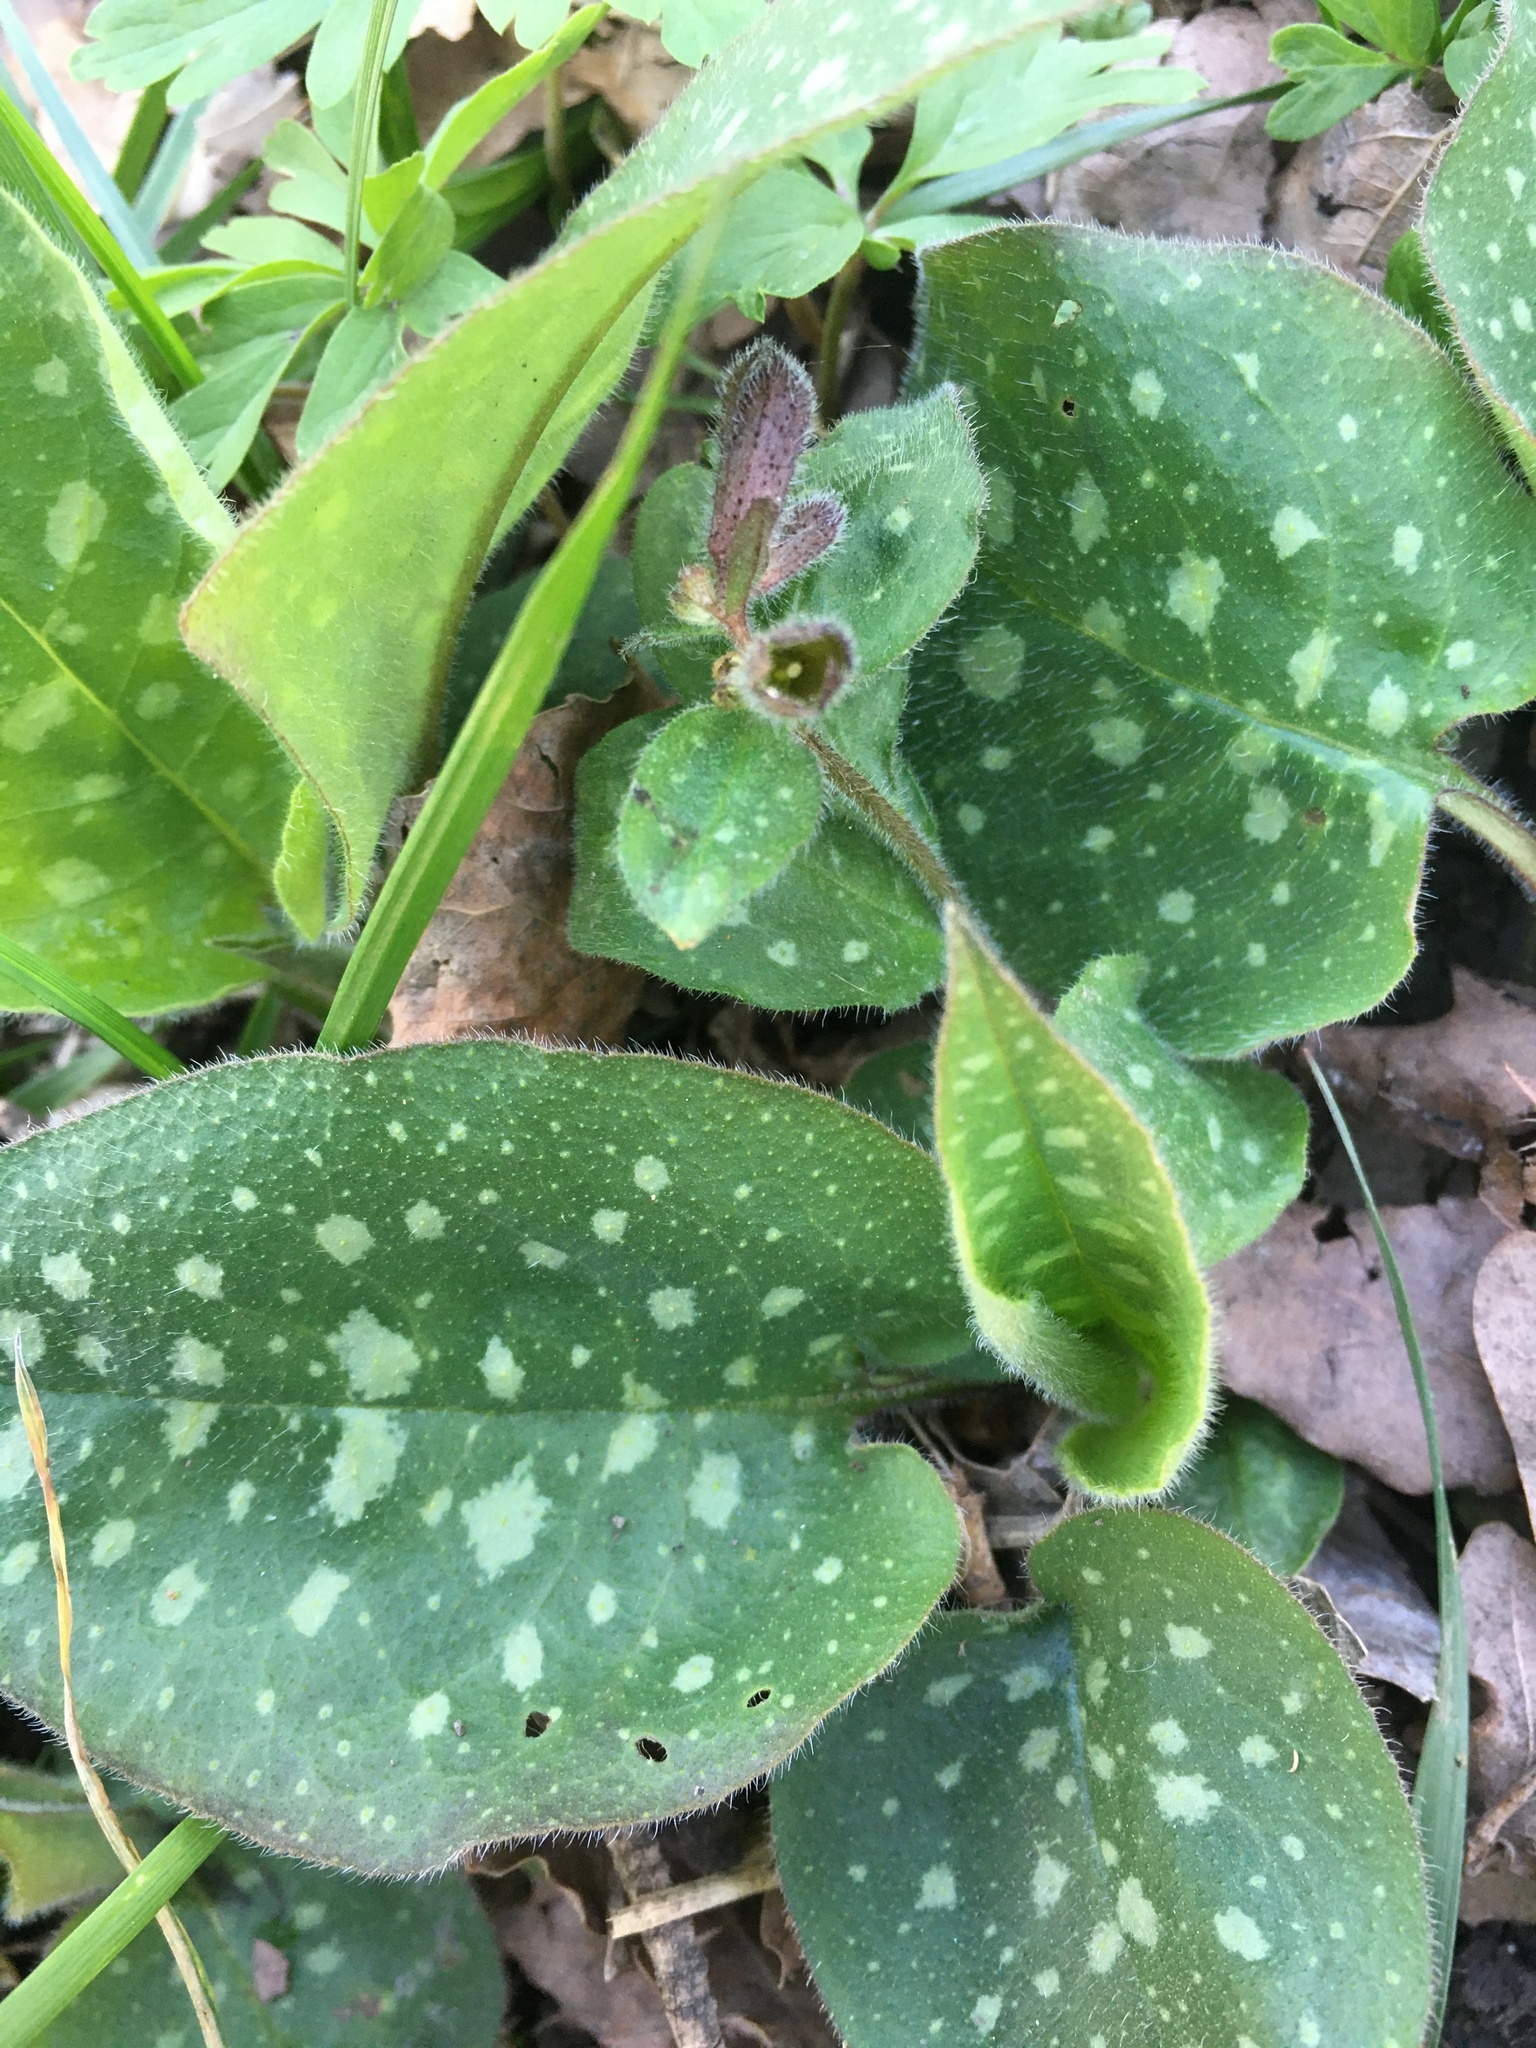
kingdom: Plantae
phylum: Tracheophyta
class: Magnoliopsida
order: Boraginales
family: Boraginaceae
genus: Pulmonaria
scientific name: Pulmonaria officinalis
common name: Lungwort
